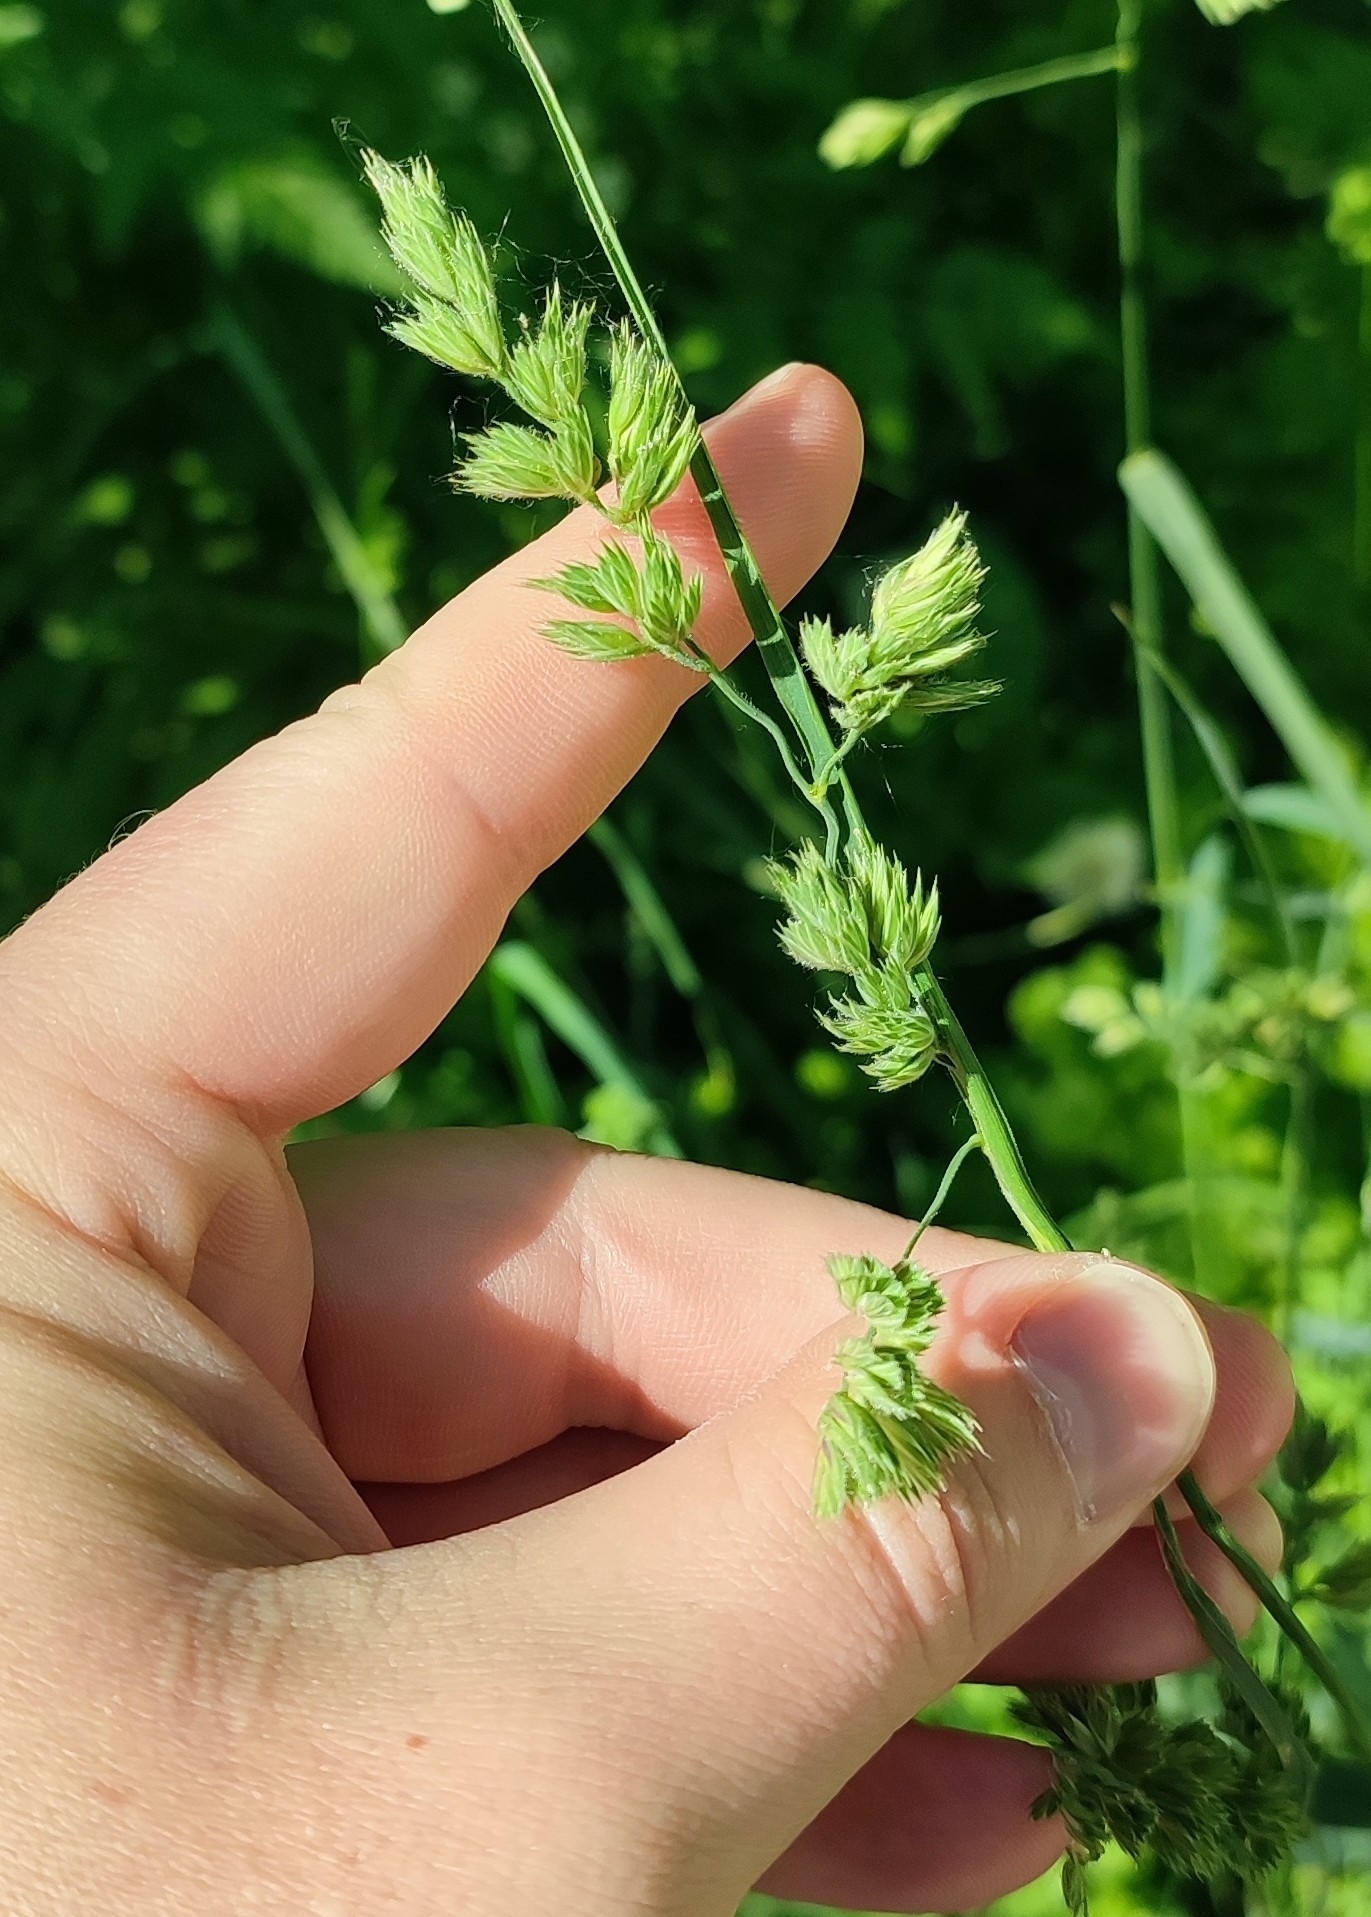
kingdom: Plantae
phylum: Tracheophyta
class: Liliopsida
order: Poales
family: Poaceae
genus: Dactylis
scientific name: Dactylis glomerata
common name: Orchardgrass
